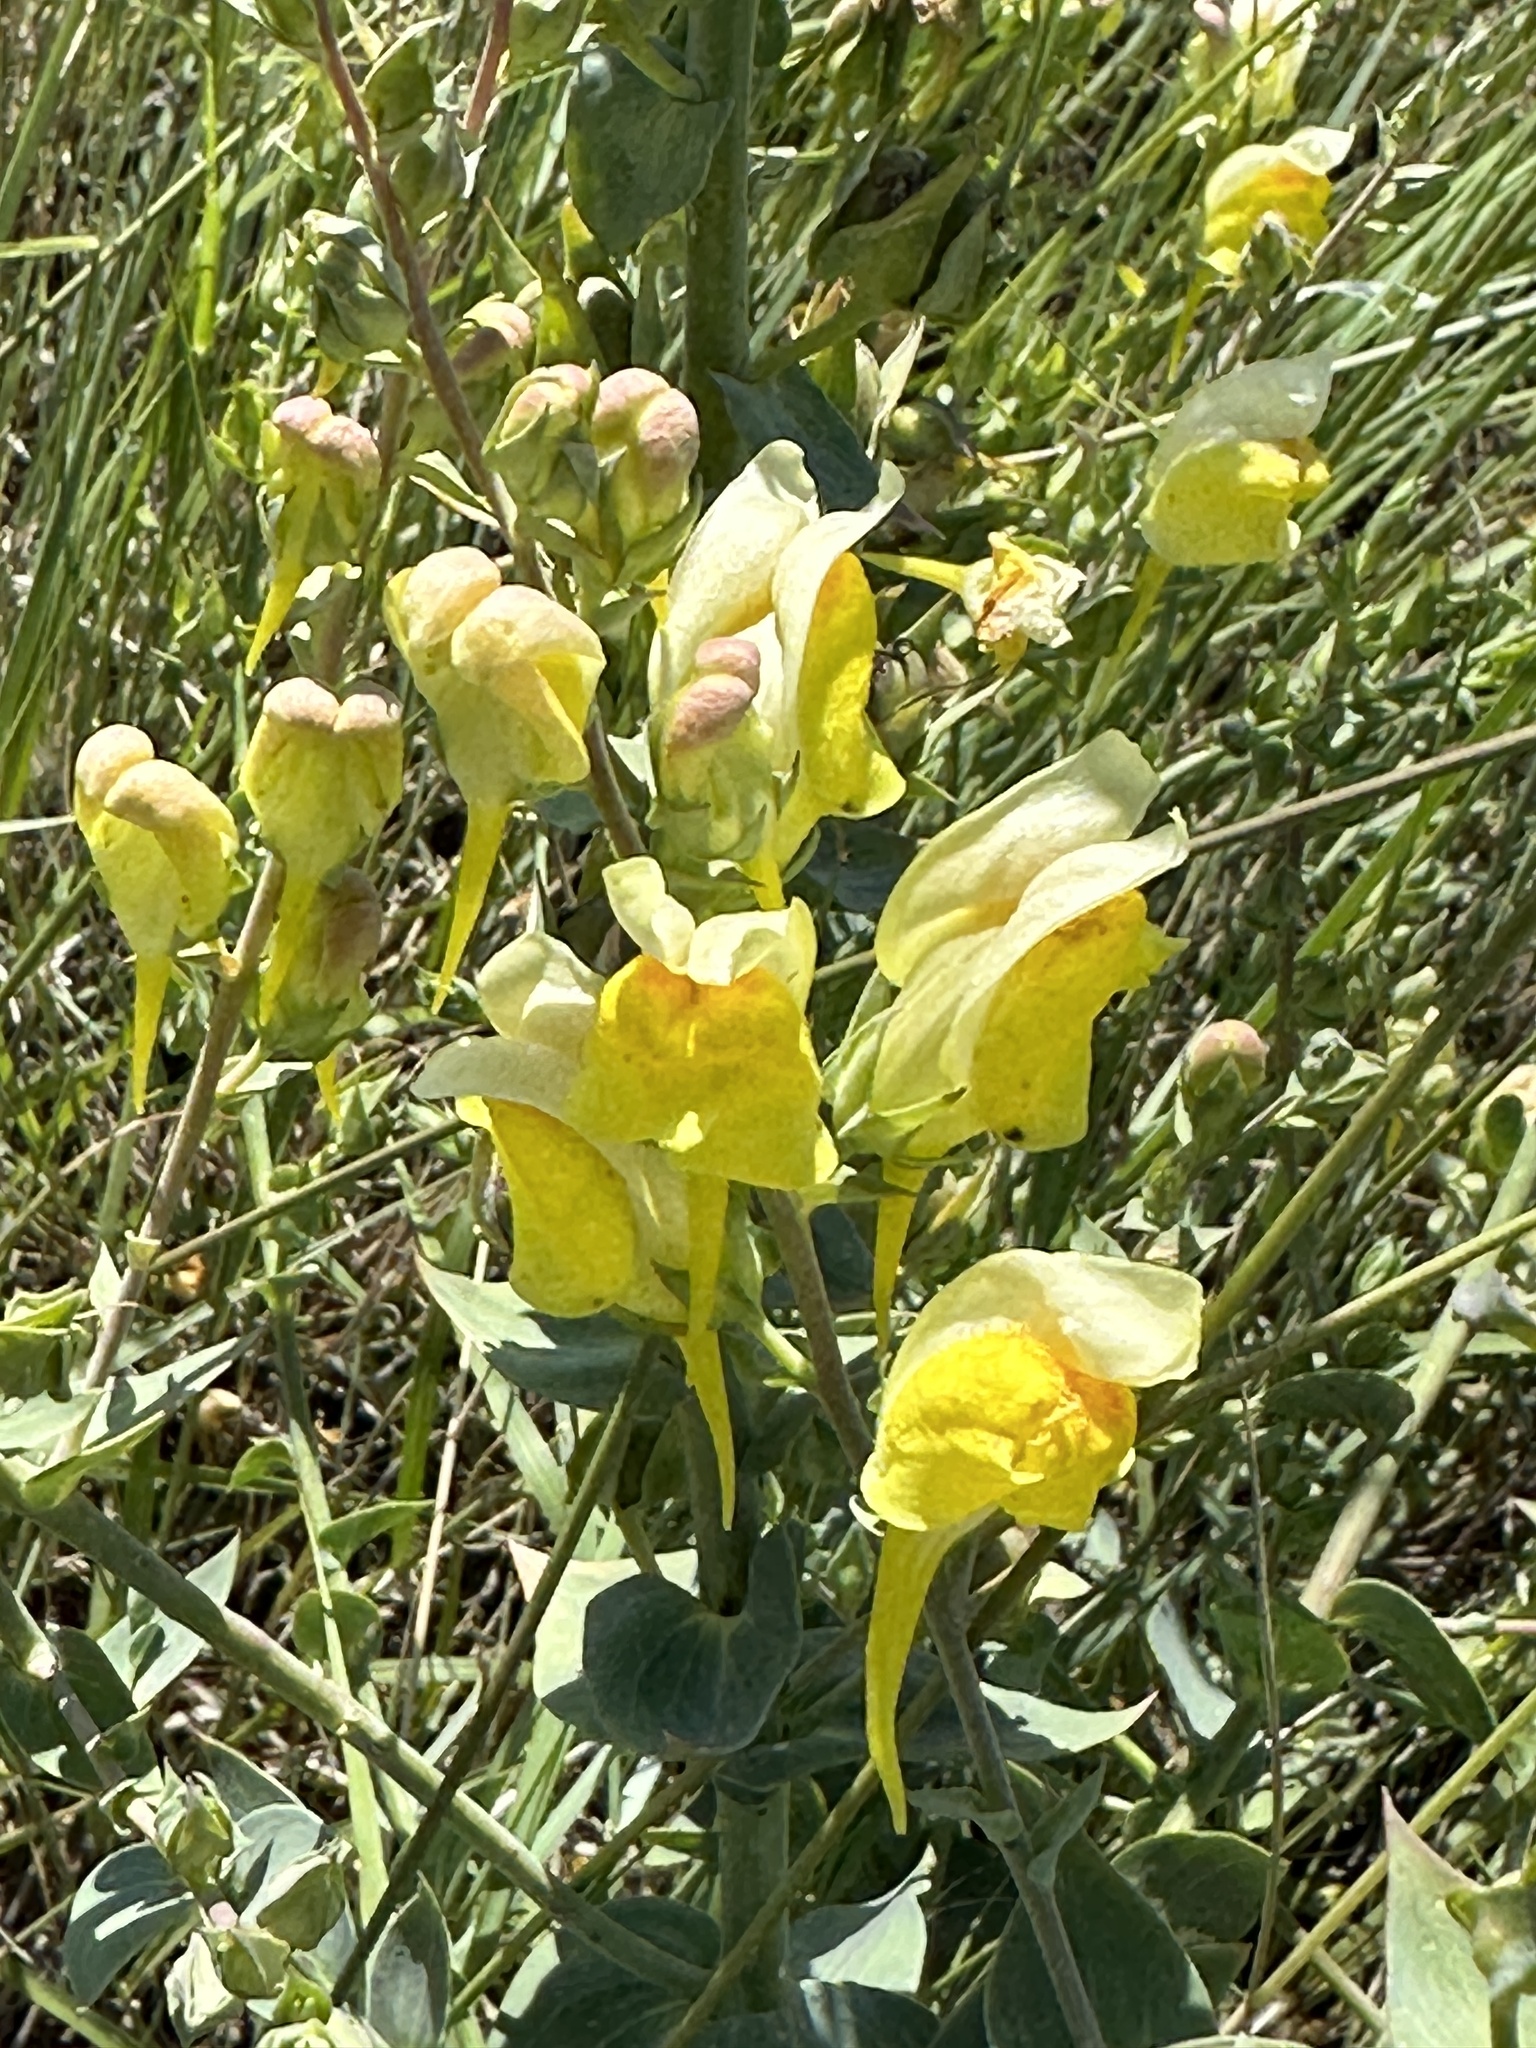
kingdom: Plantae
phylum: Tracheophyta
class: Magnoliopsida
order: Lamiales
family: Plantaginaceae
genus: Linaria
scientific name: Linaria dalmatica
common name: Dalmatian toadflax
